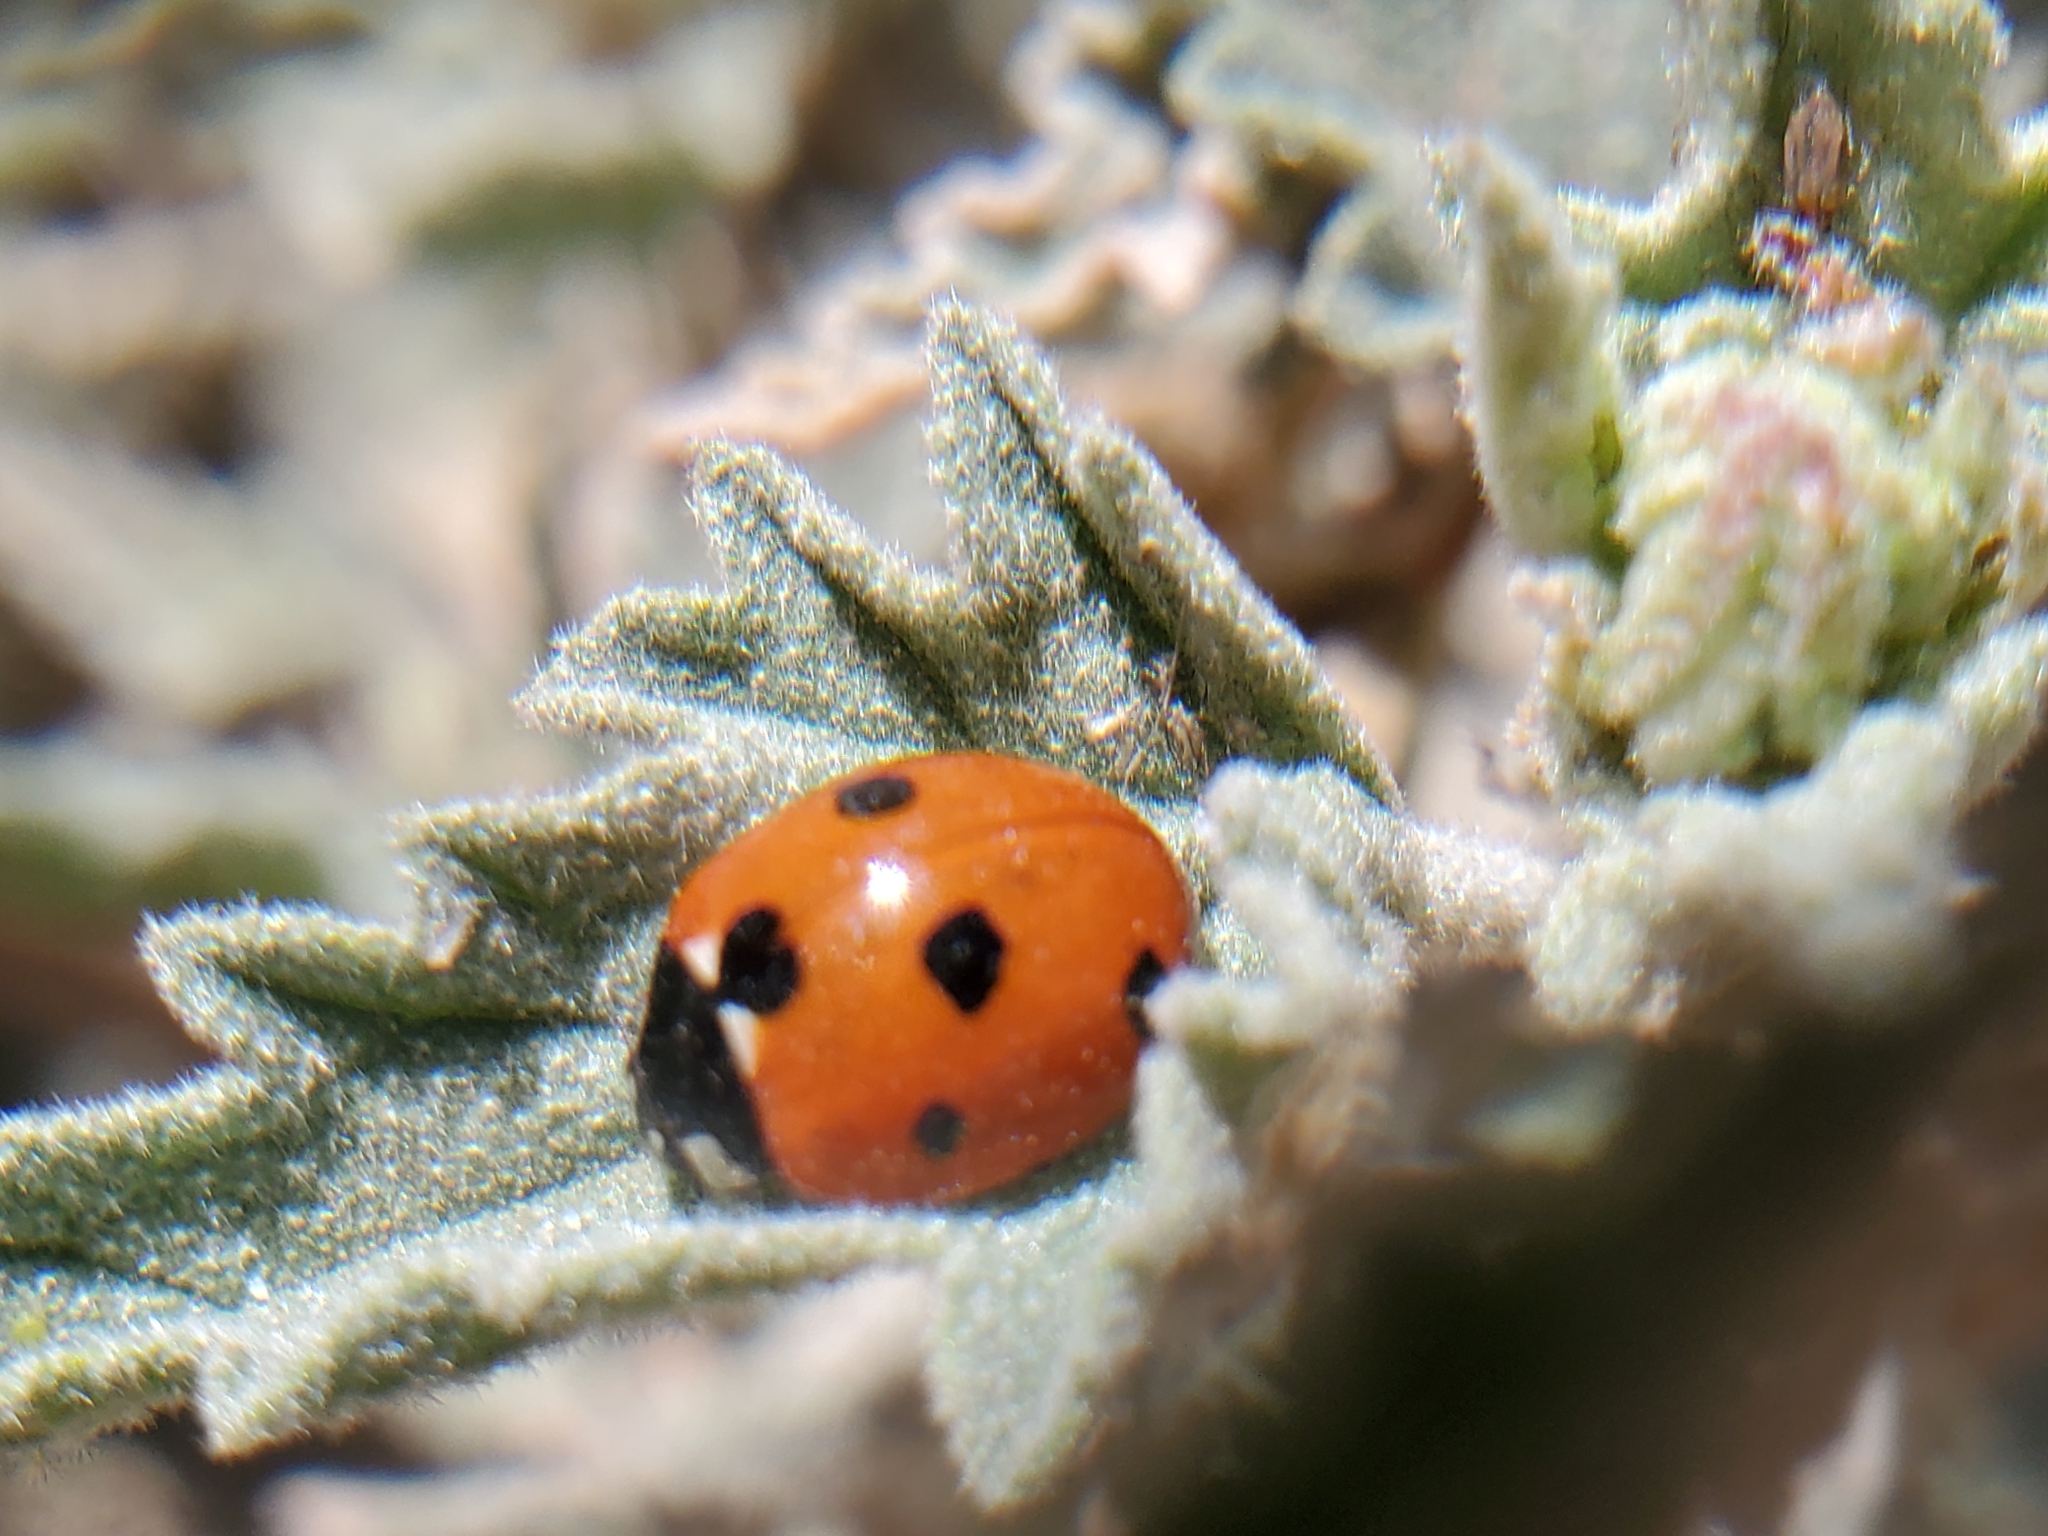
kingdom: Animalia
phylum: Arthropoda
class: Insecta
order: Coleoptera
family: Coccinellidae
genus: Coccinella
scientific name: Coccinella septempunctata
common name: Sevenspotted lady beetle
